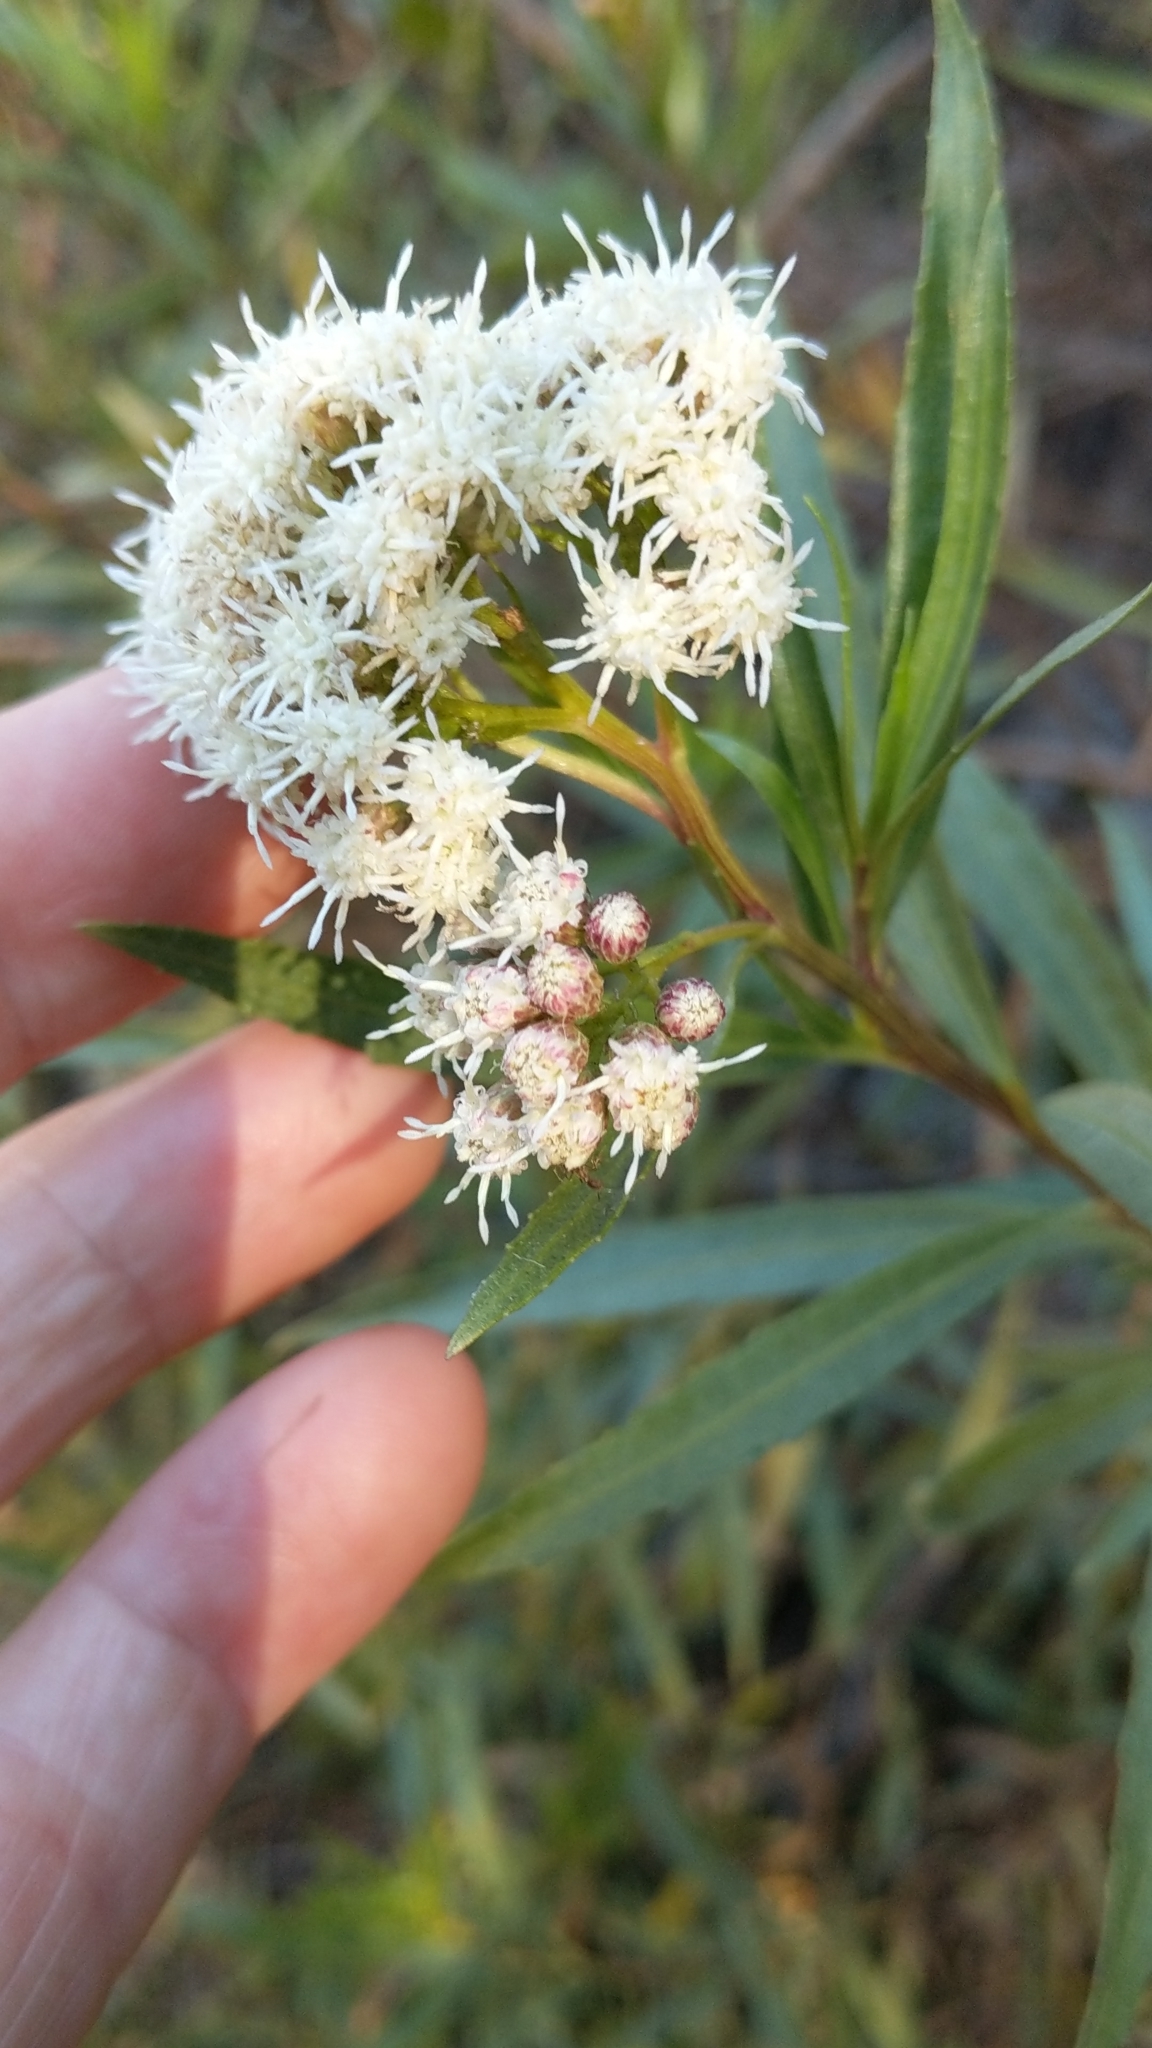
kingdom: Plantae
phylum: Tracheophyta
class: Magnoliopsida
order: Asterales
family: Asteraceae
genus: Baccharis
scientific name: Baccharis salicifolia
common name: Sticky baccharis
